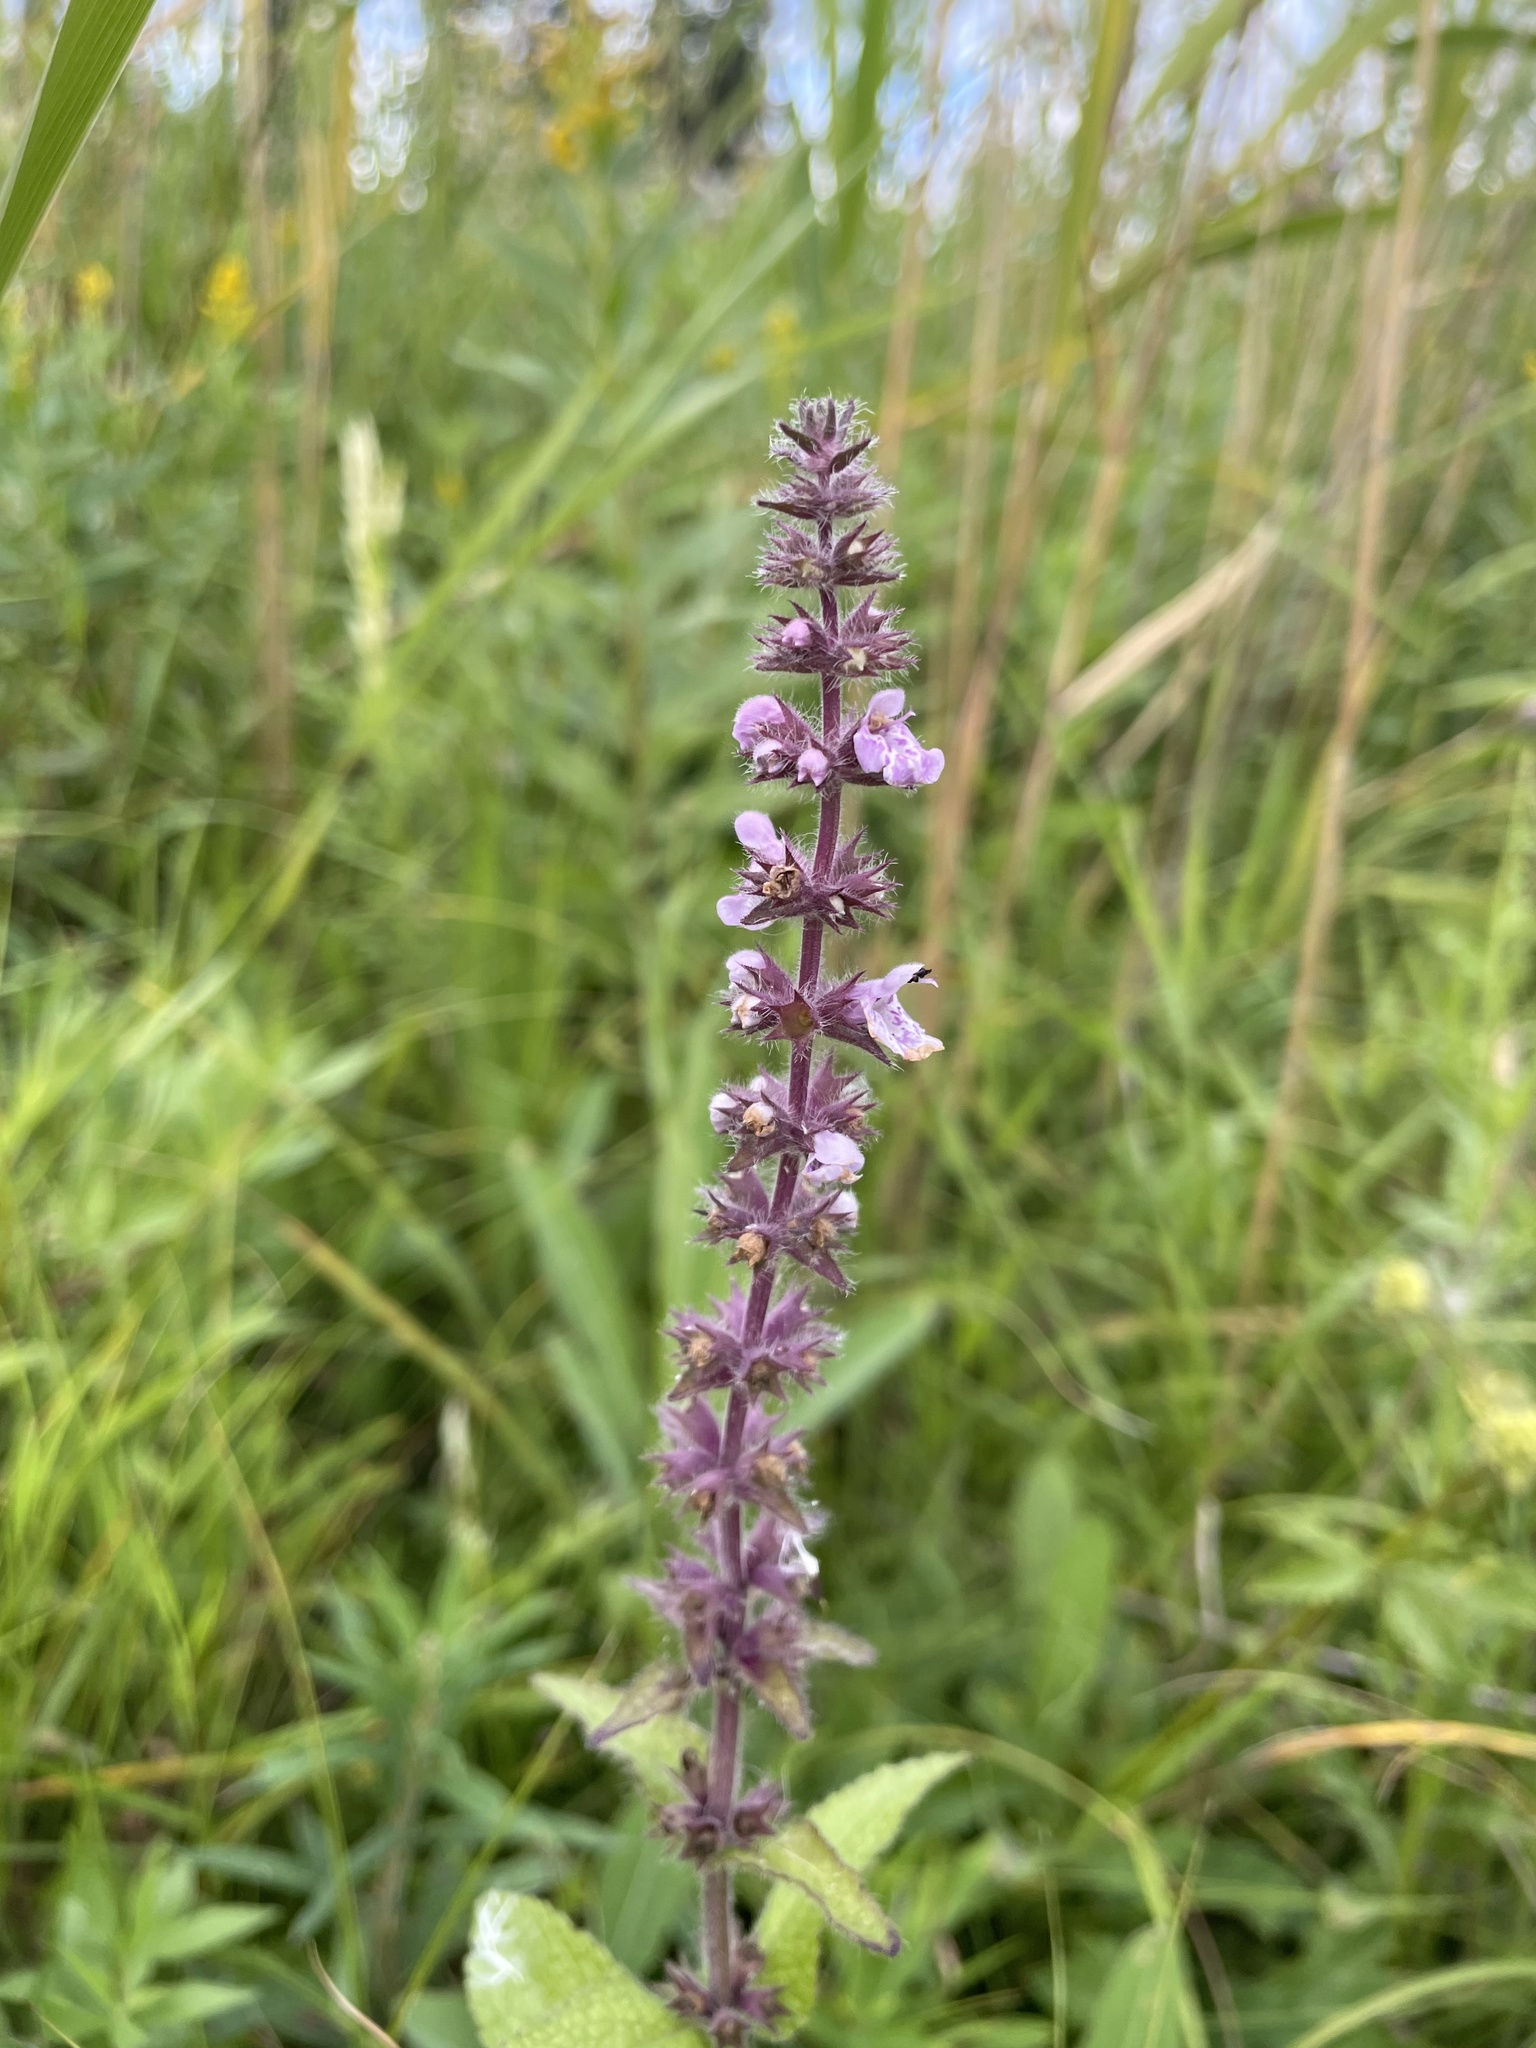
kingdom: Plantae
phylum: Tracheophyta
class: Magnoliopsida
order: Lamiales
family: Lamiaceae
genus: Stachys
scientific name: Stachys palustris
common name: Marsh woundwort
